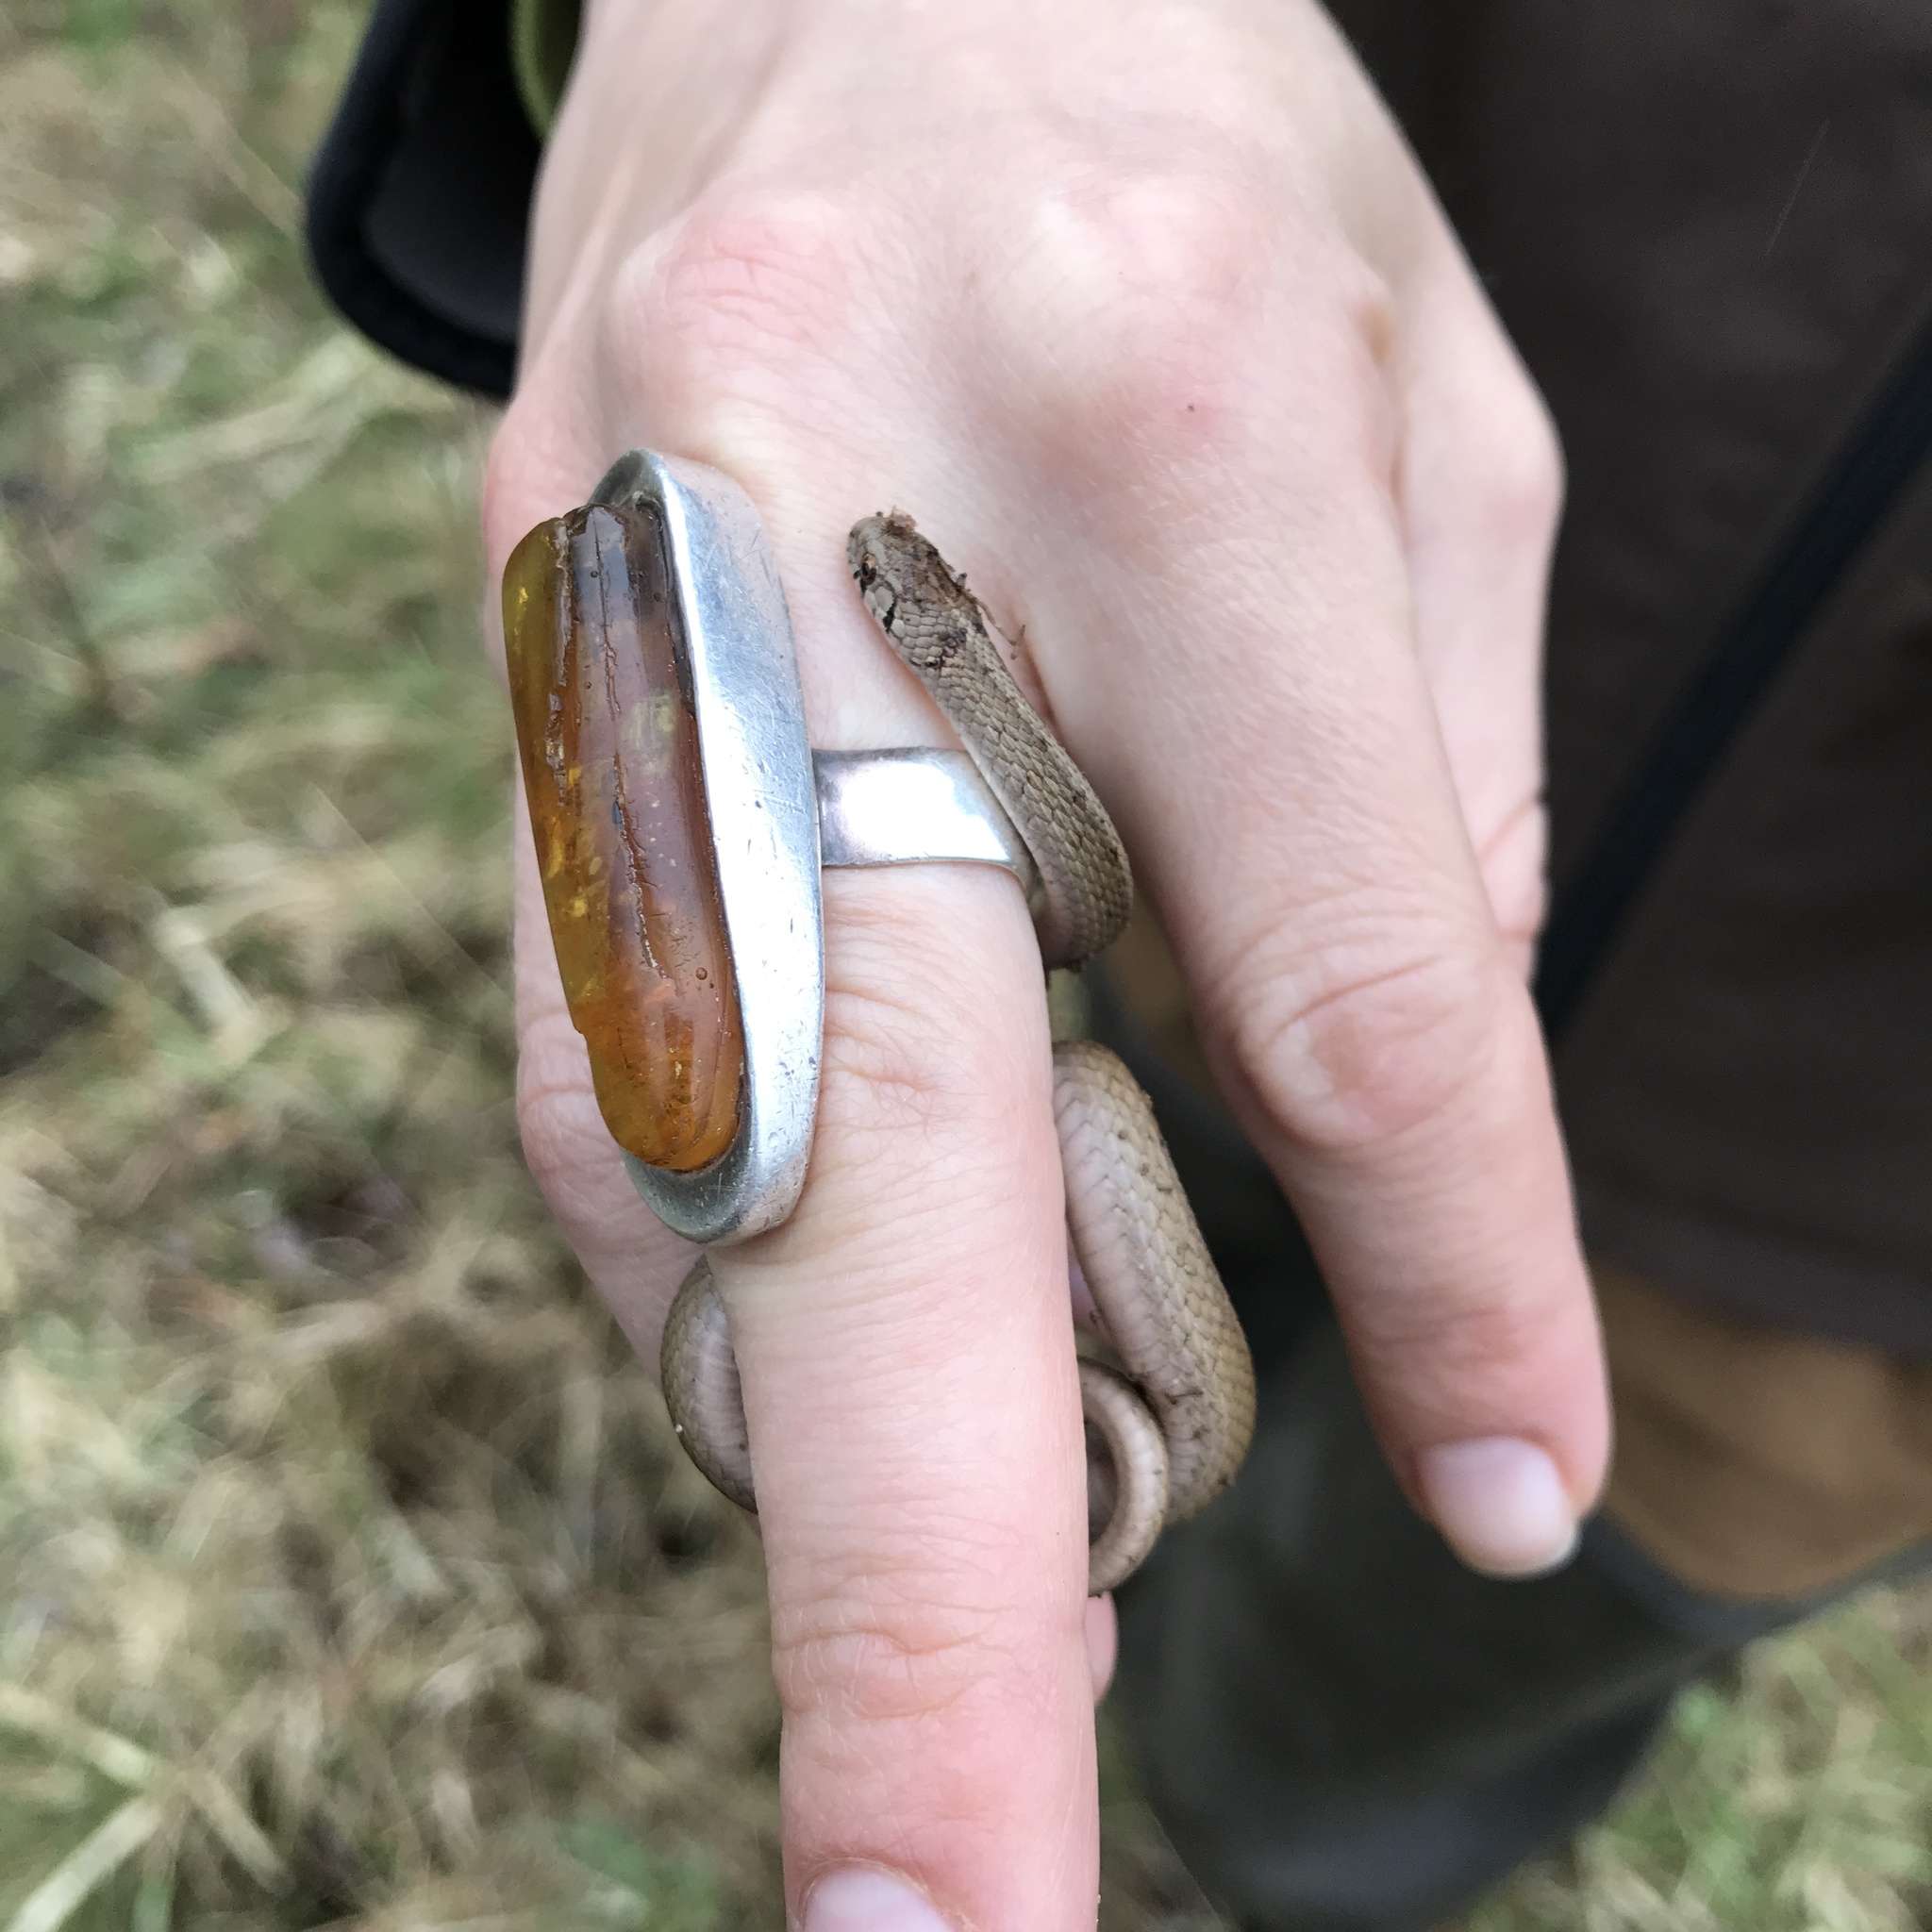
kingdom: Animalia
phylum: Chordata
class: Squamata
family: Colubridae
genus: Storeria
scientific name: Storeria dekayi
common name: (dekay’s) brown snake
